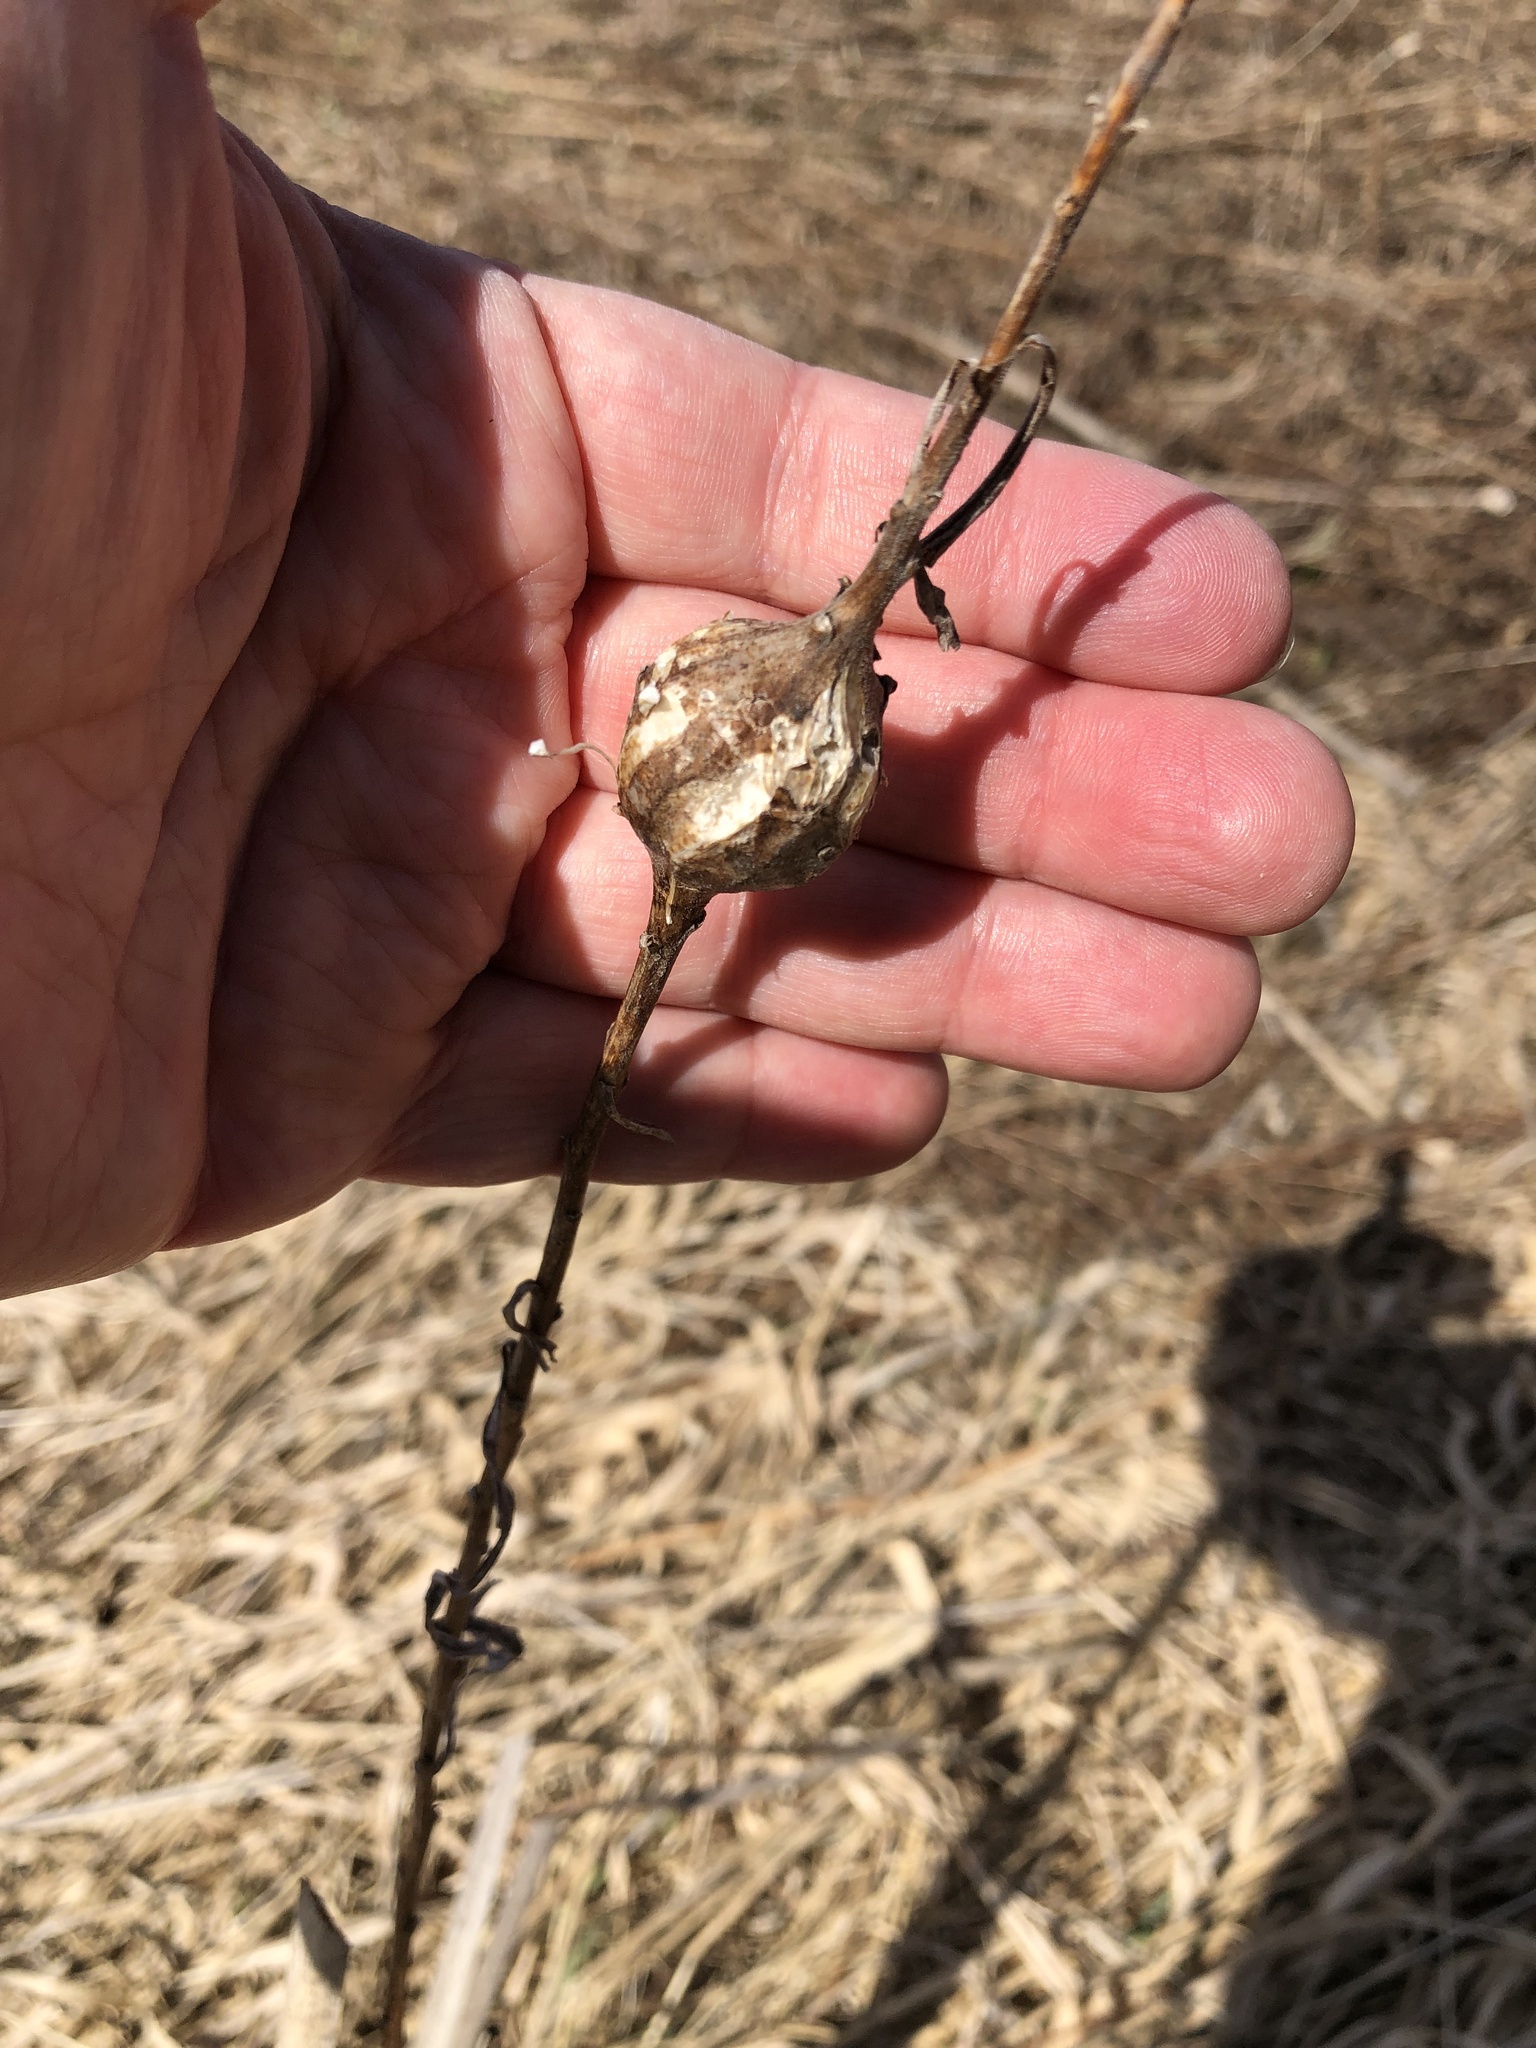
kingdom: Animalia
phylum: Arthropoda
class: Insecta
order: Diptera
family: Tephritidae
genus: Eurosta
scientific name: Eurosta solidaginis
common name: Goldenrod gall fly
